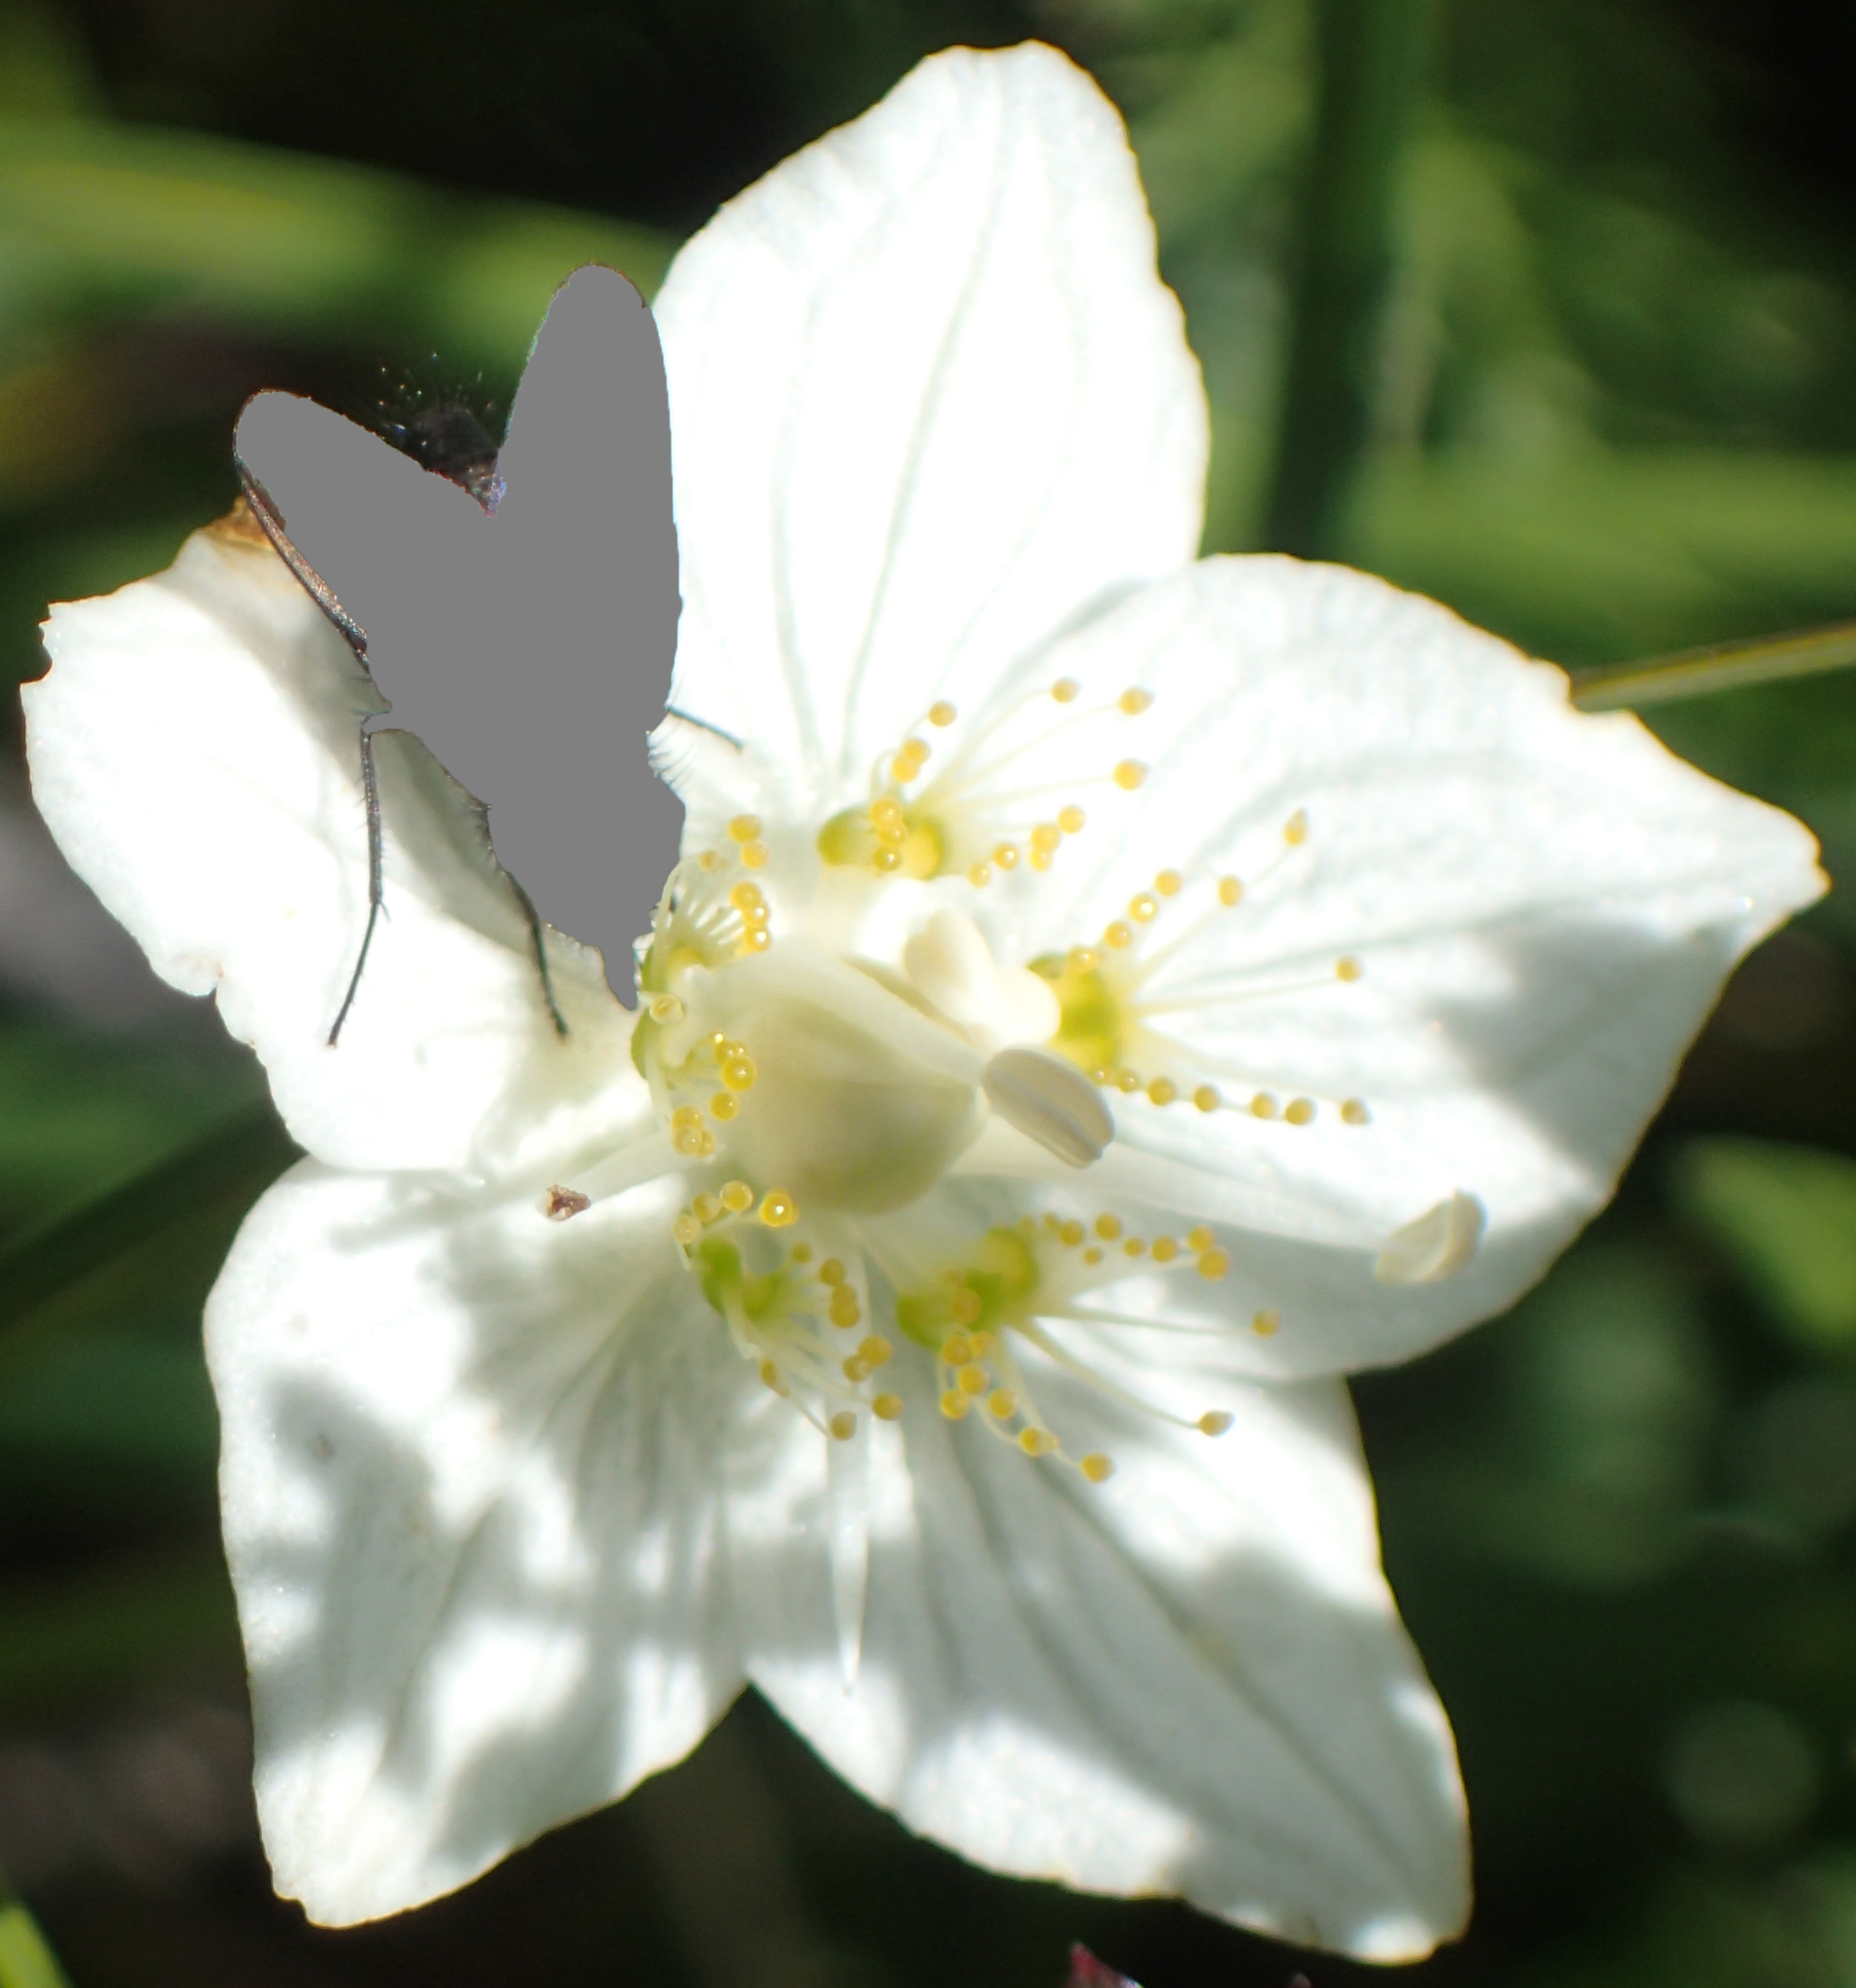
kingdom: Plantae
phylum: Tracheophyta
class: Magnoliopsida
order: Celastrales
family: Parnassiaceae
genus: Parnassia
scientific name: Parnassia palustris
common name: Grass-of-parnassus
